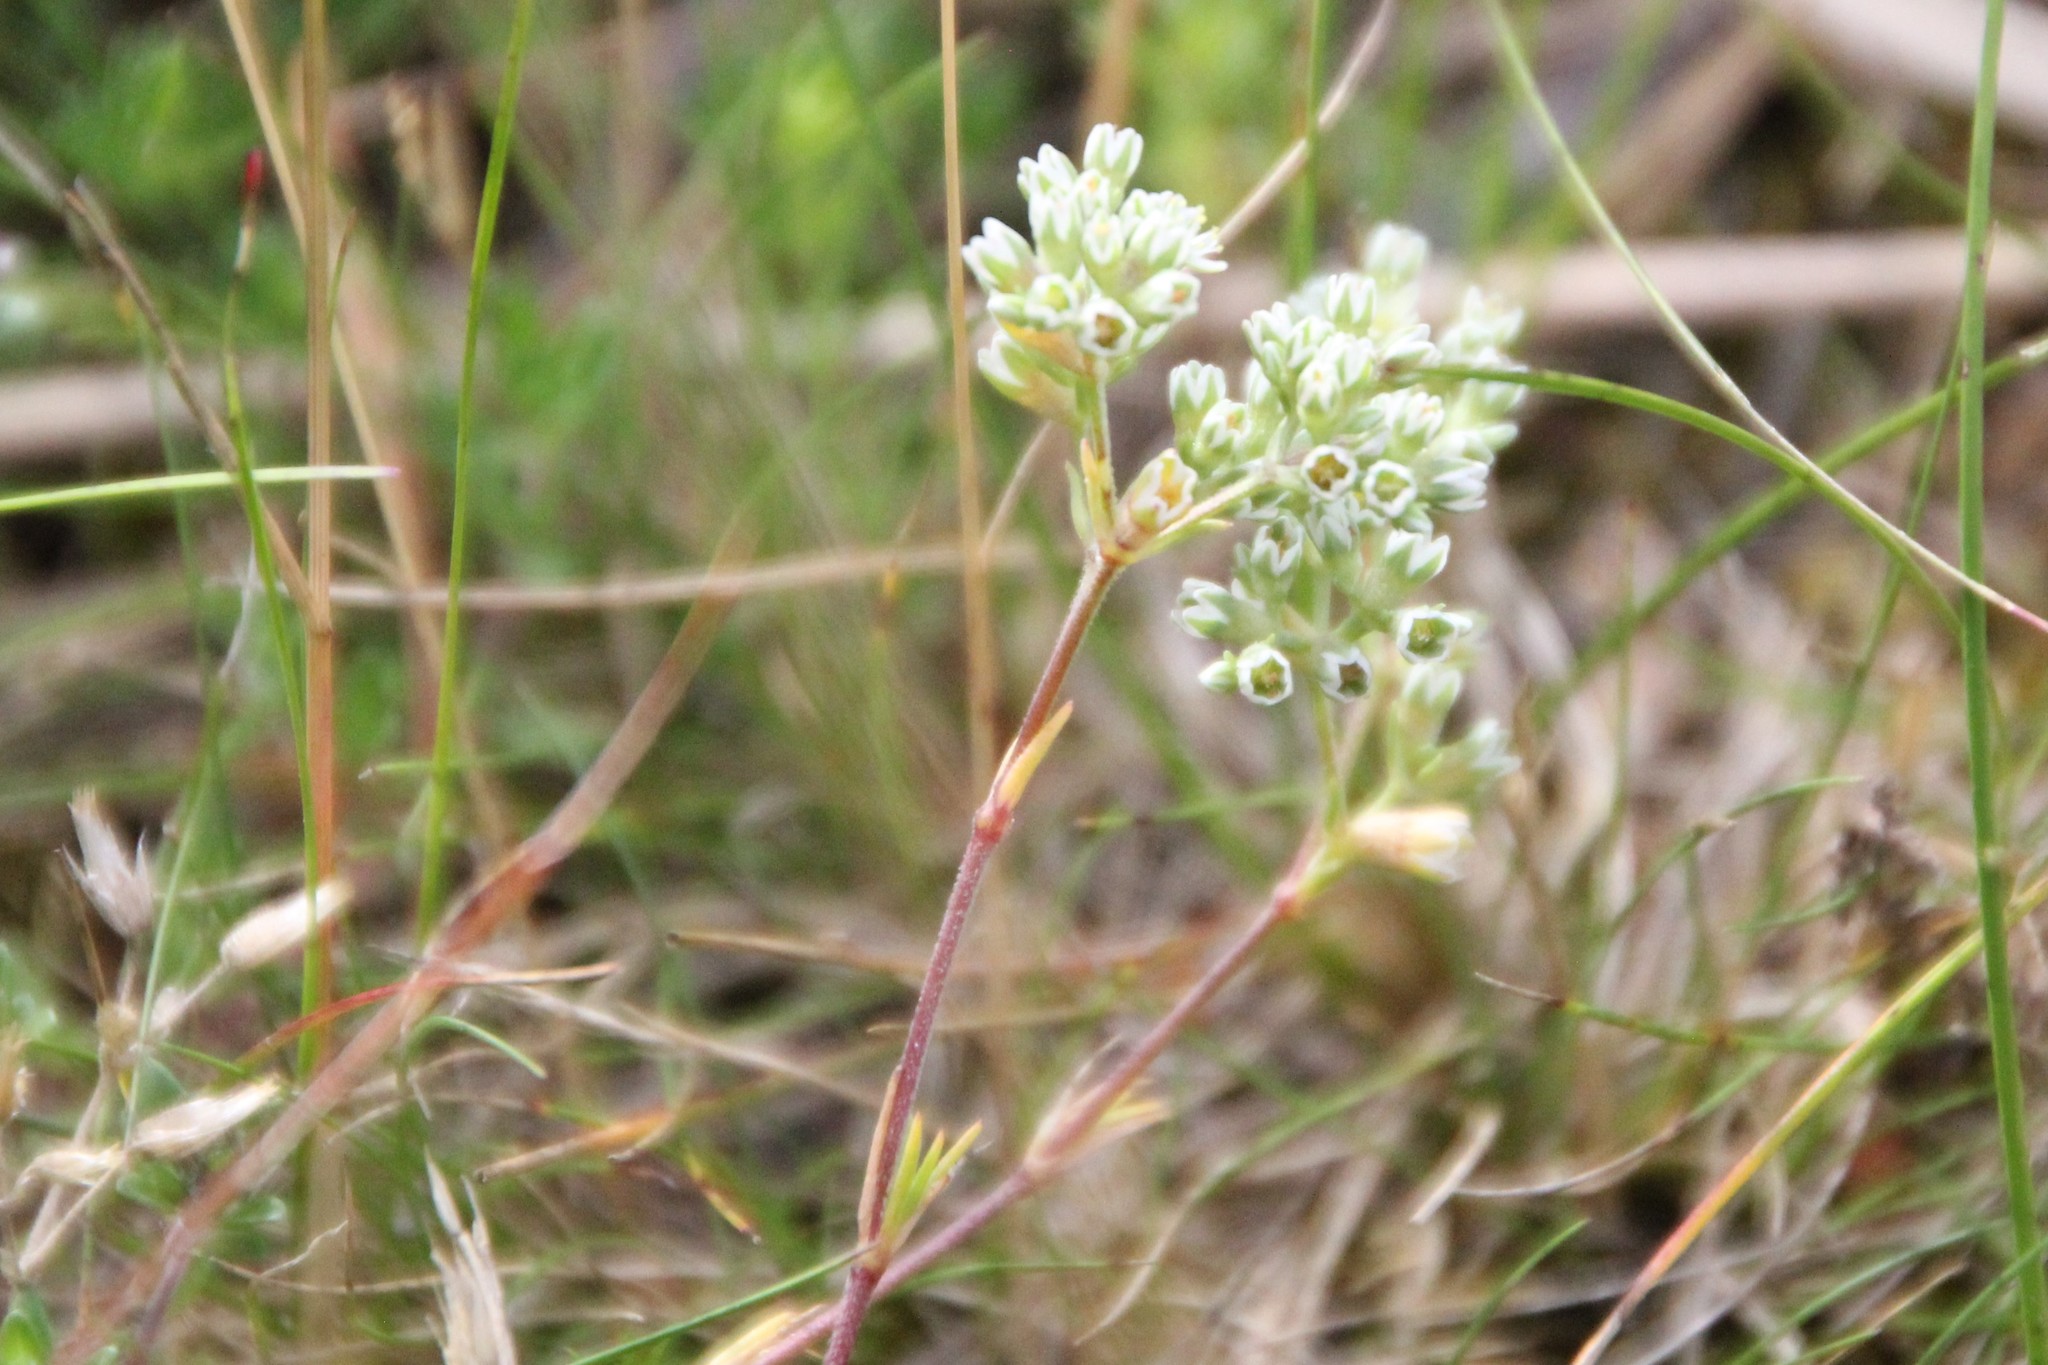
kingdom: Plantae
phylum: Tracheophyta
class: Magnoliopsida
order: Caryophyllales
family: Caryophyllaceae
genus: Scleranthus
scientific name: Scleranthus perennis
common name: Perennial knawel
